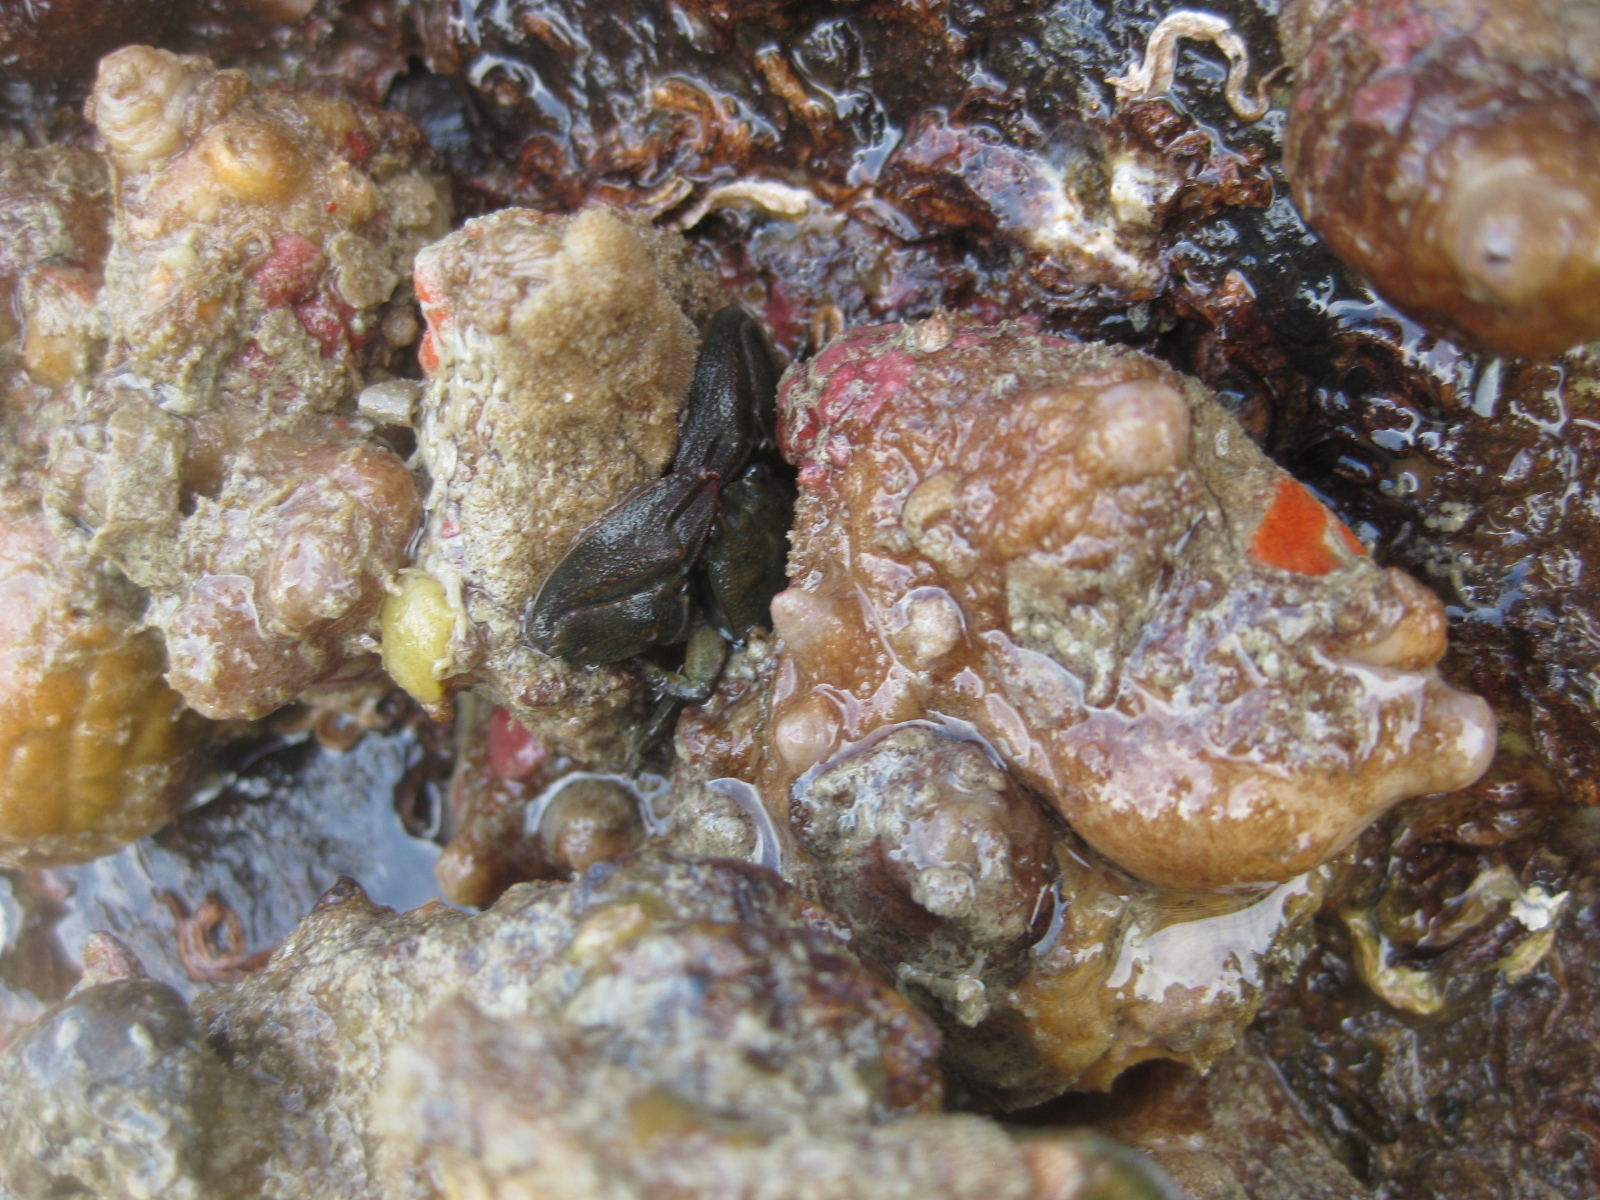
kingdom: Animalia
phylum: Arthropoda
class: Malacostraca
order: Decapoda
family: Porcellanidae
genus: Petrolisthes
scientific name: Petrolisthes elongatus
